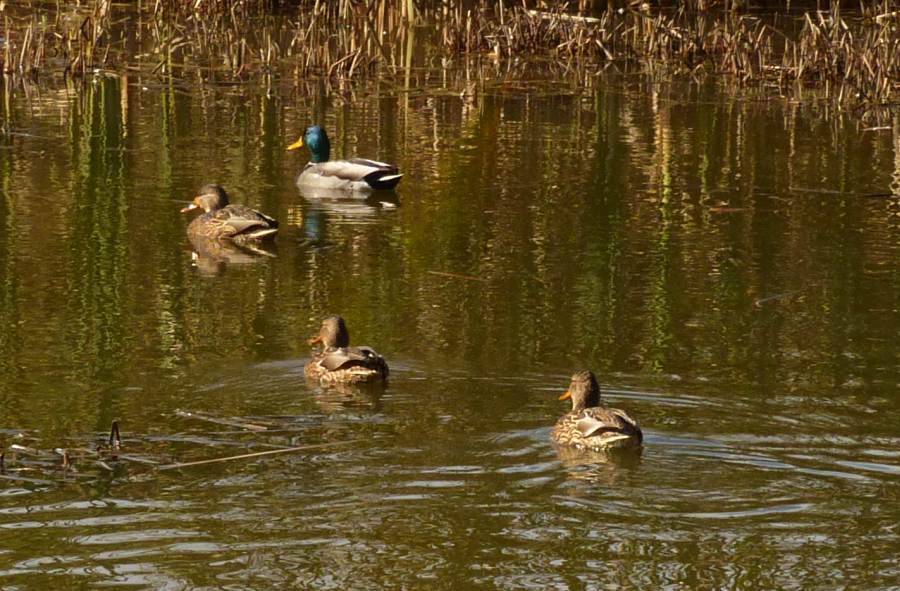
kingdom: Animalia
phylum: Chordata
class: Aves
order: Anseriformes
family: Anatidae
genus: Anas
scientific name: Anas platyrhynchos
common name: Mallard
